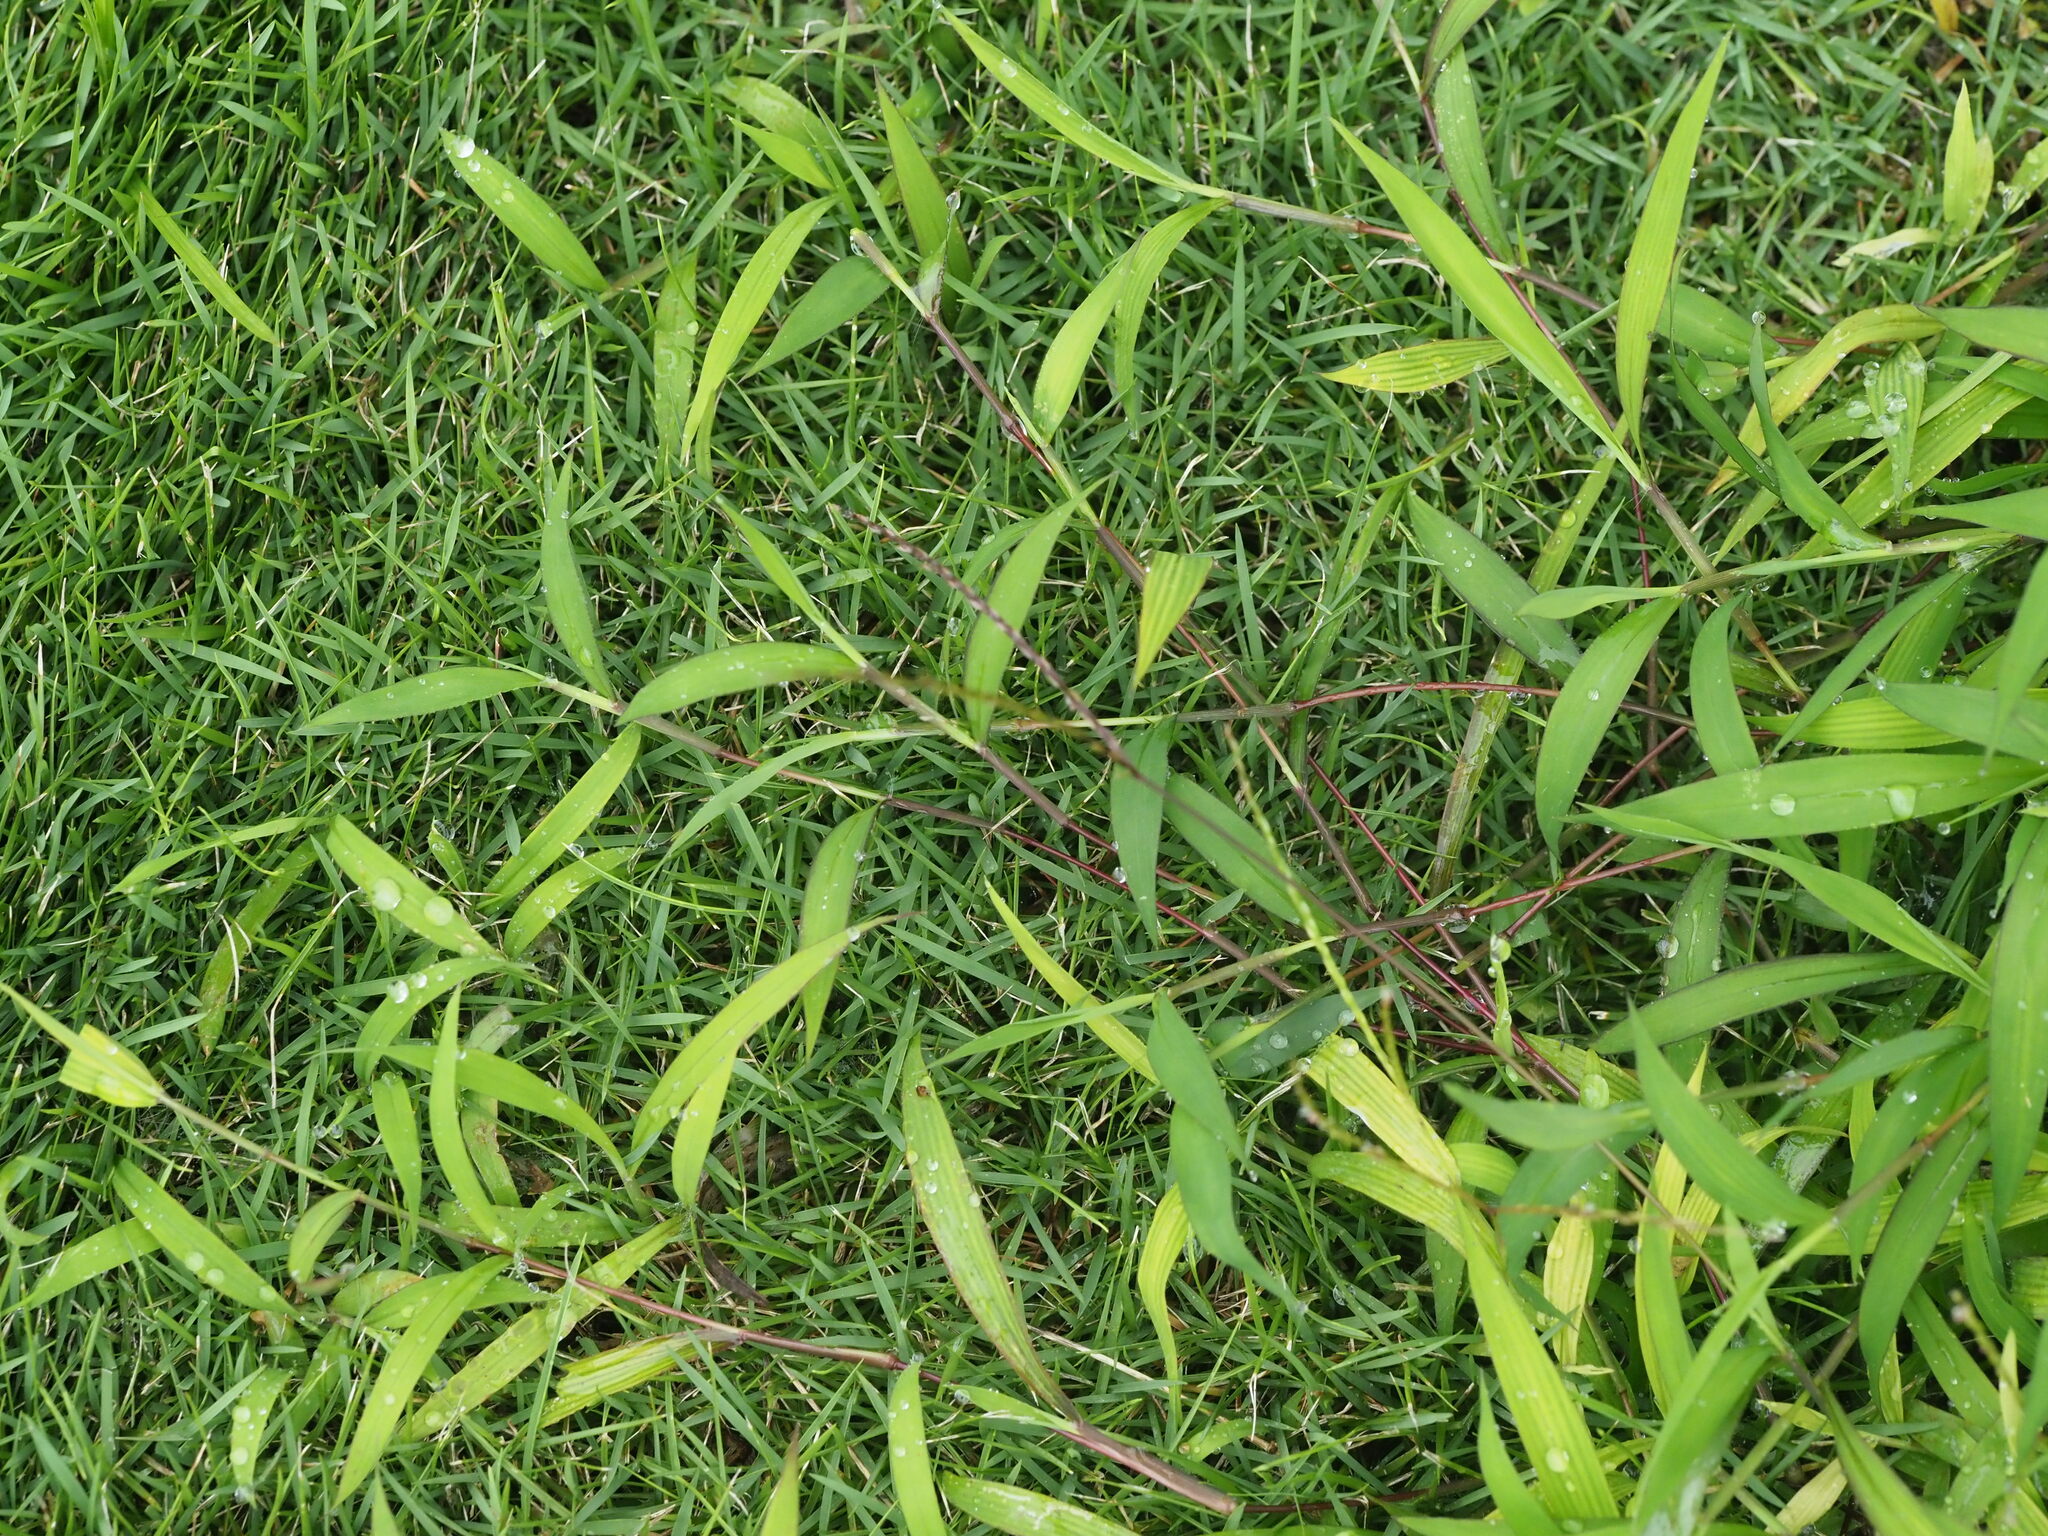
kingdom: Plantae
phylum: Tracheophyta
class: Liliopsida
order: Poales
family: Poaceae
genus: Digitaria
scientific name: Digitaria radicosa
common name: Trailing crabgrass
